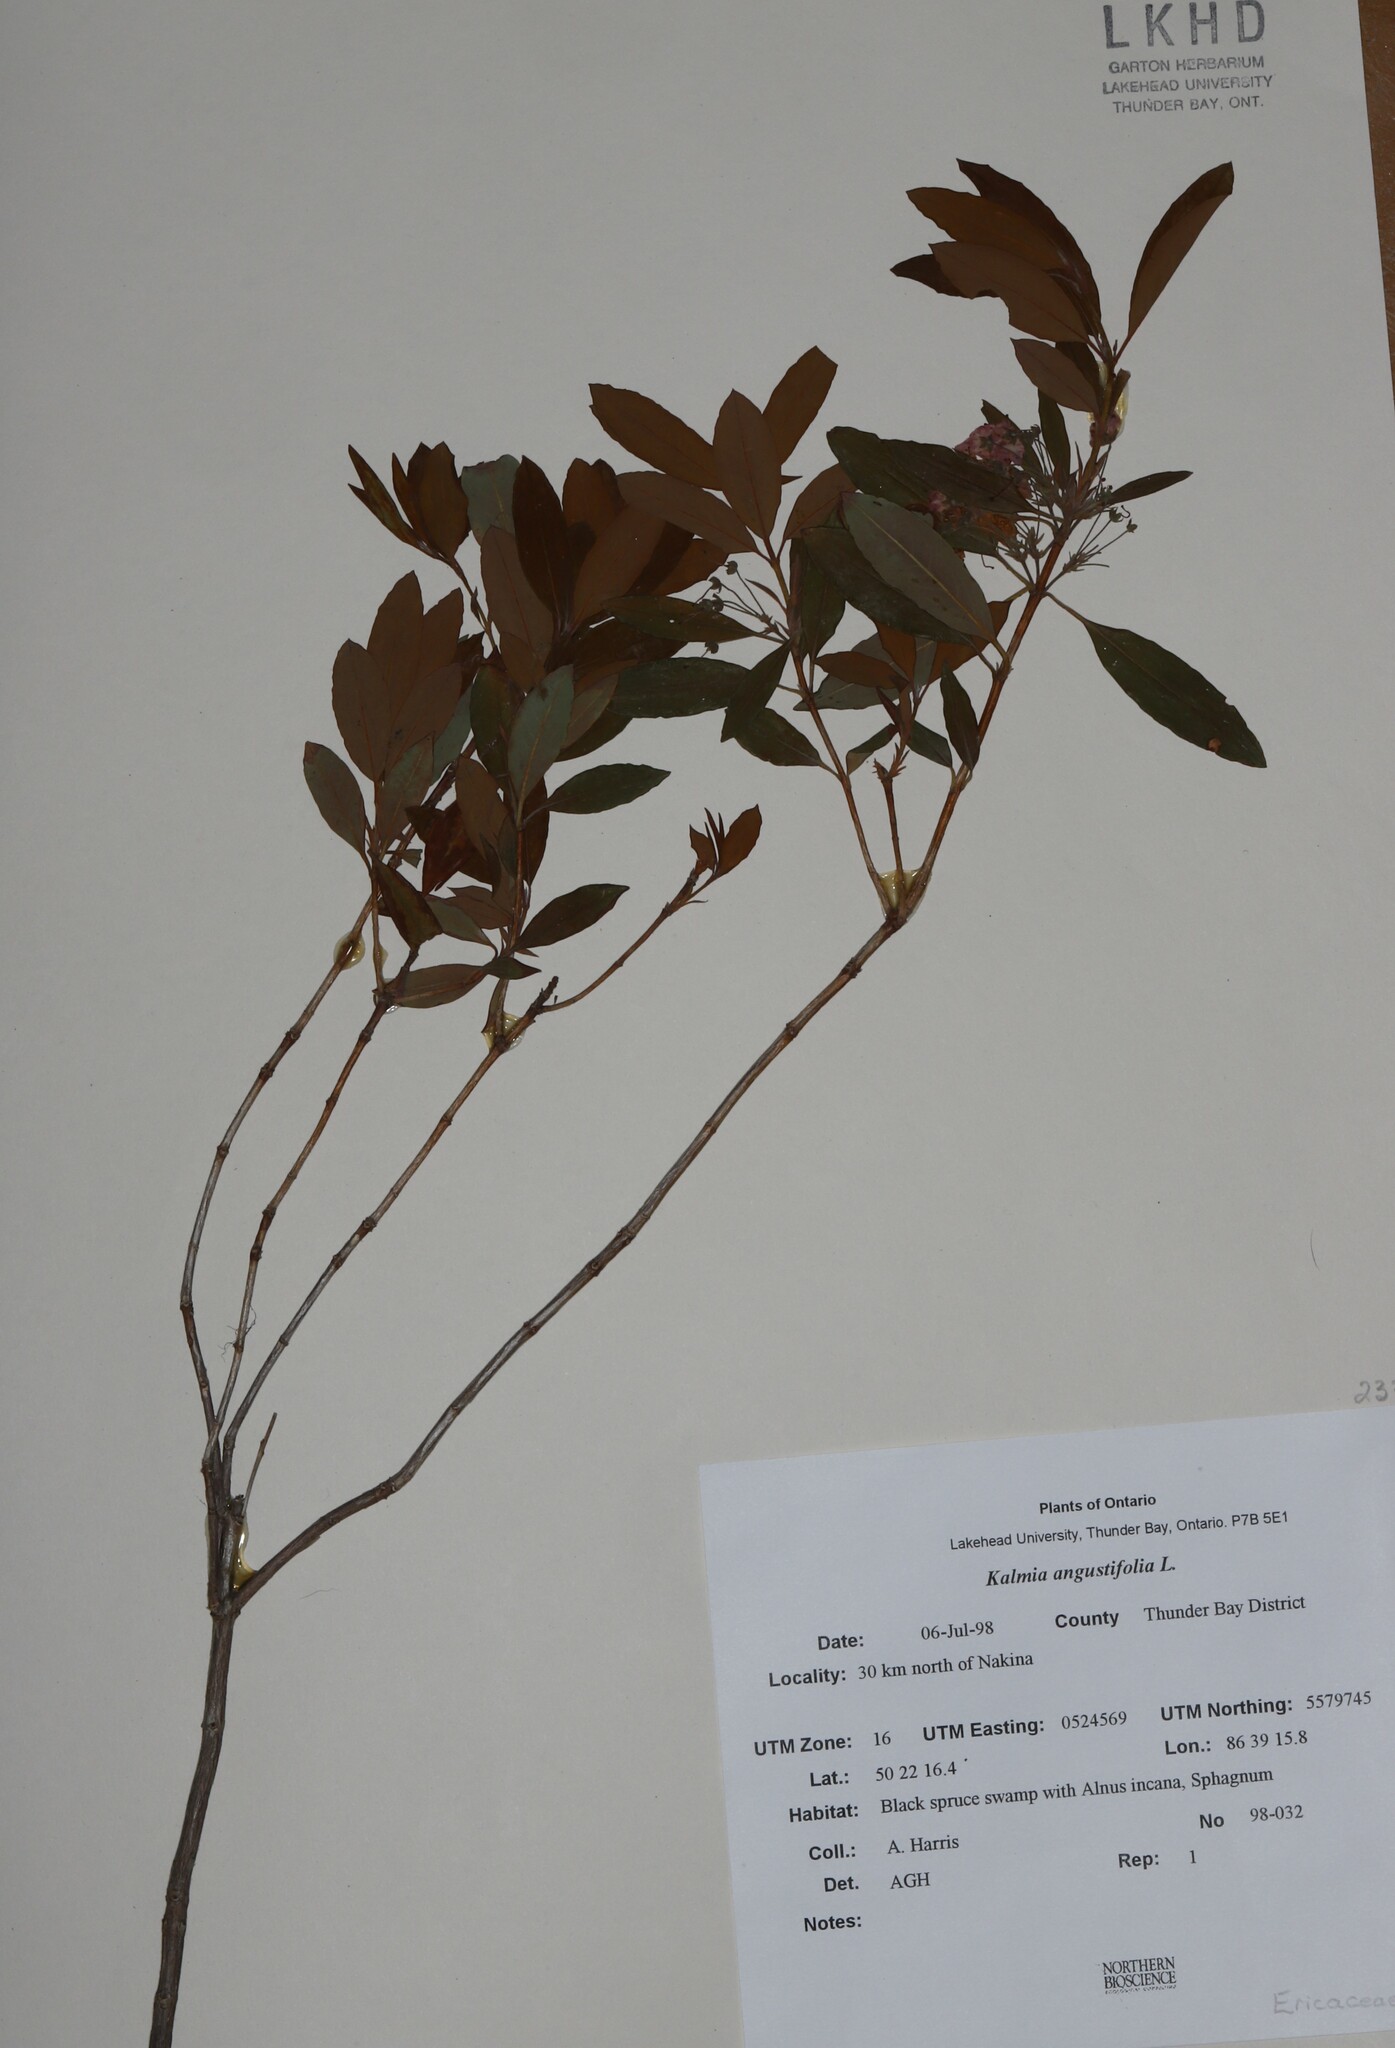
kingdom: Plantae
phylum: Tracheophyta
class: Magnoliopsida
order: Ericales
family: Ericaceae
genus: Kalmia
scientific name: Kalmia angustifolia
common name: Sheep-laurel
